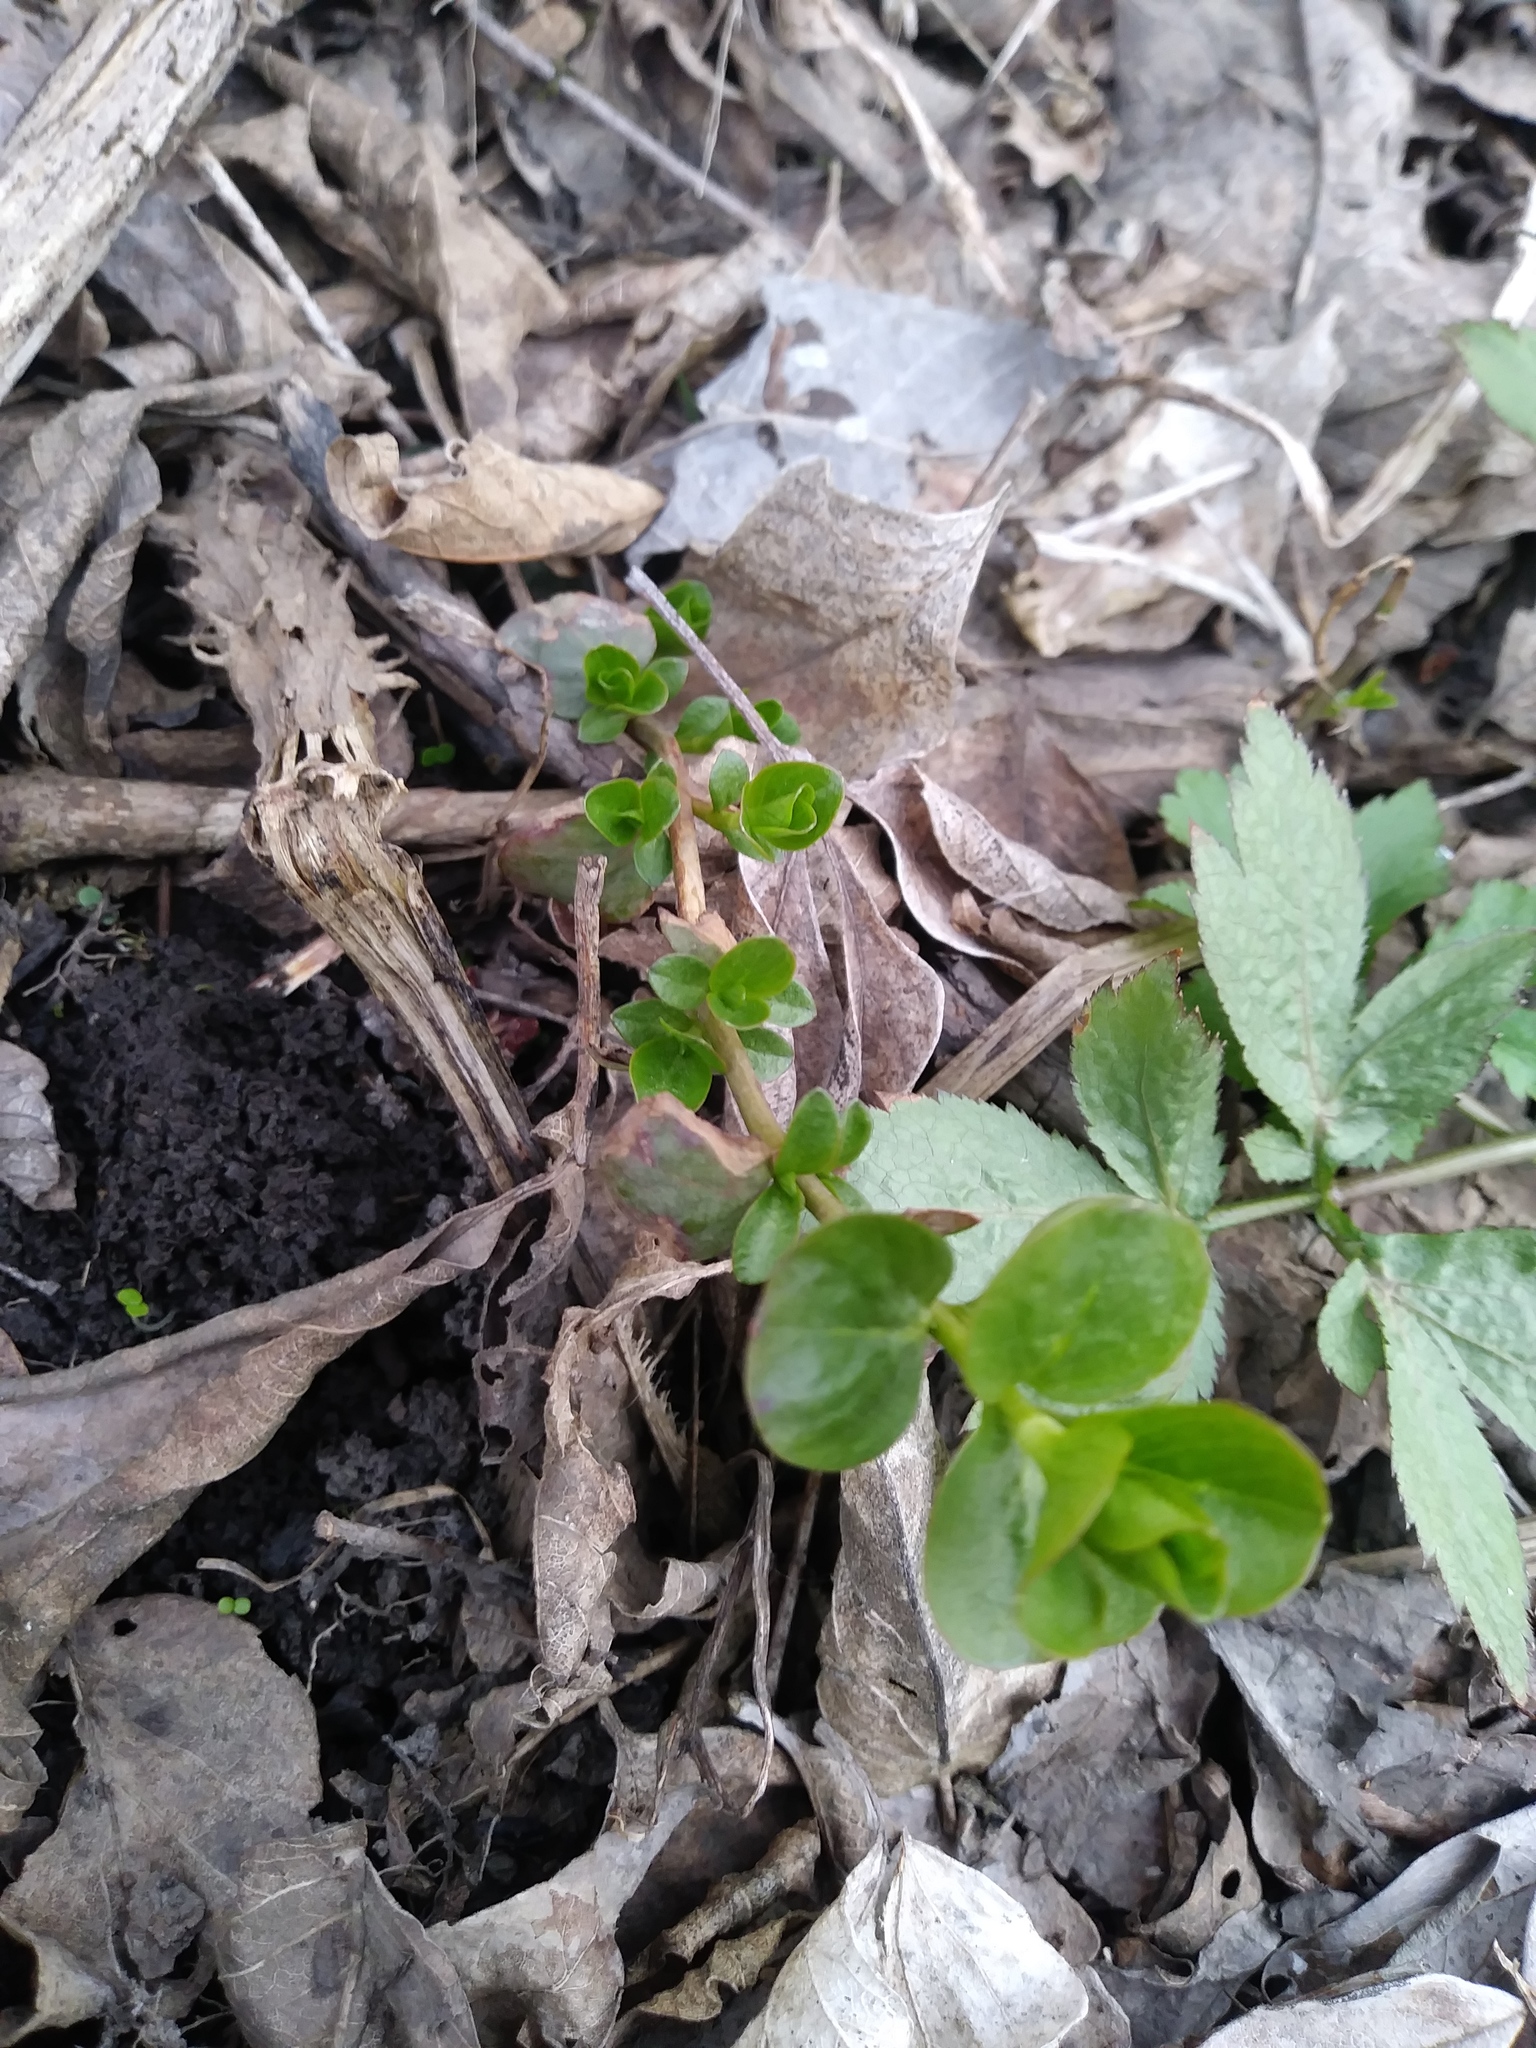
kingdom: Plantae
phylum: Tracheophyta
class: Magnoliopsida
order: Ericales
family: Primulaceae
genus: Lysimachia
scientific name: Lysimachia nummularia
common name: Moneywort
